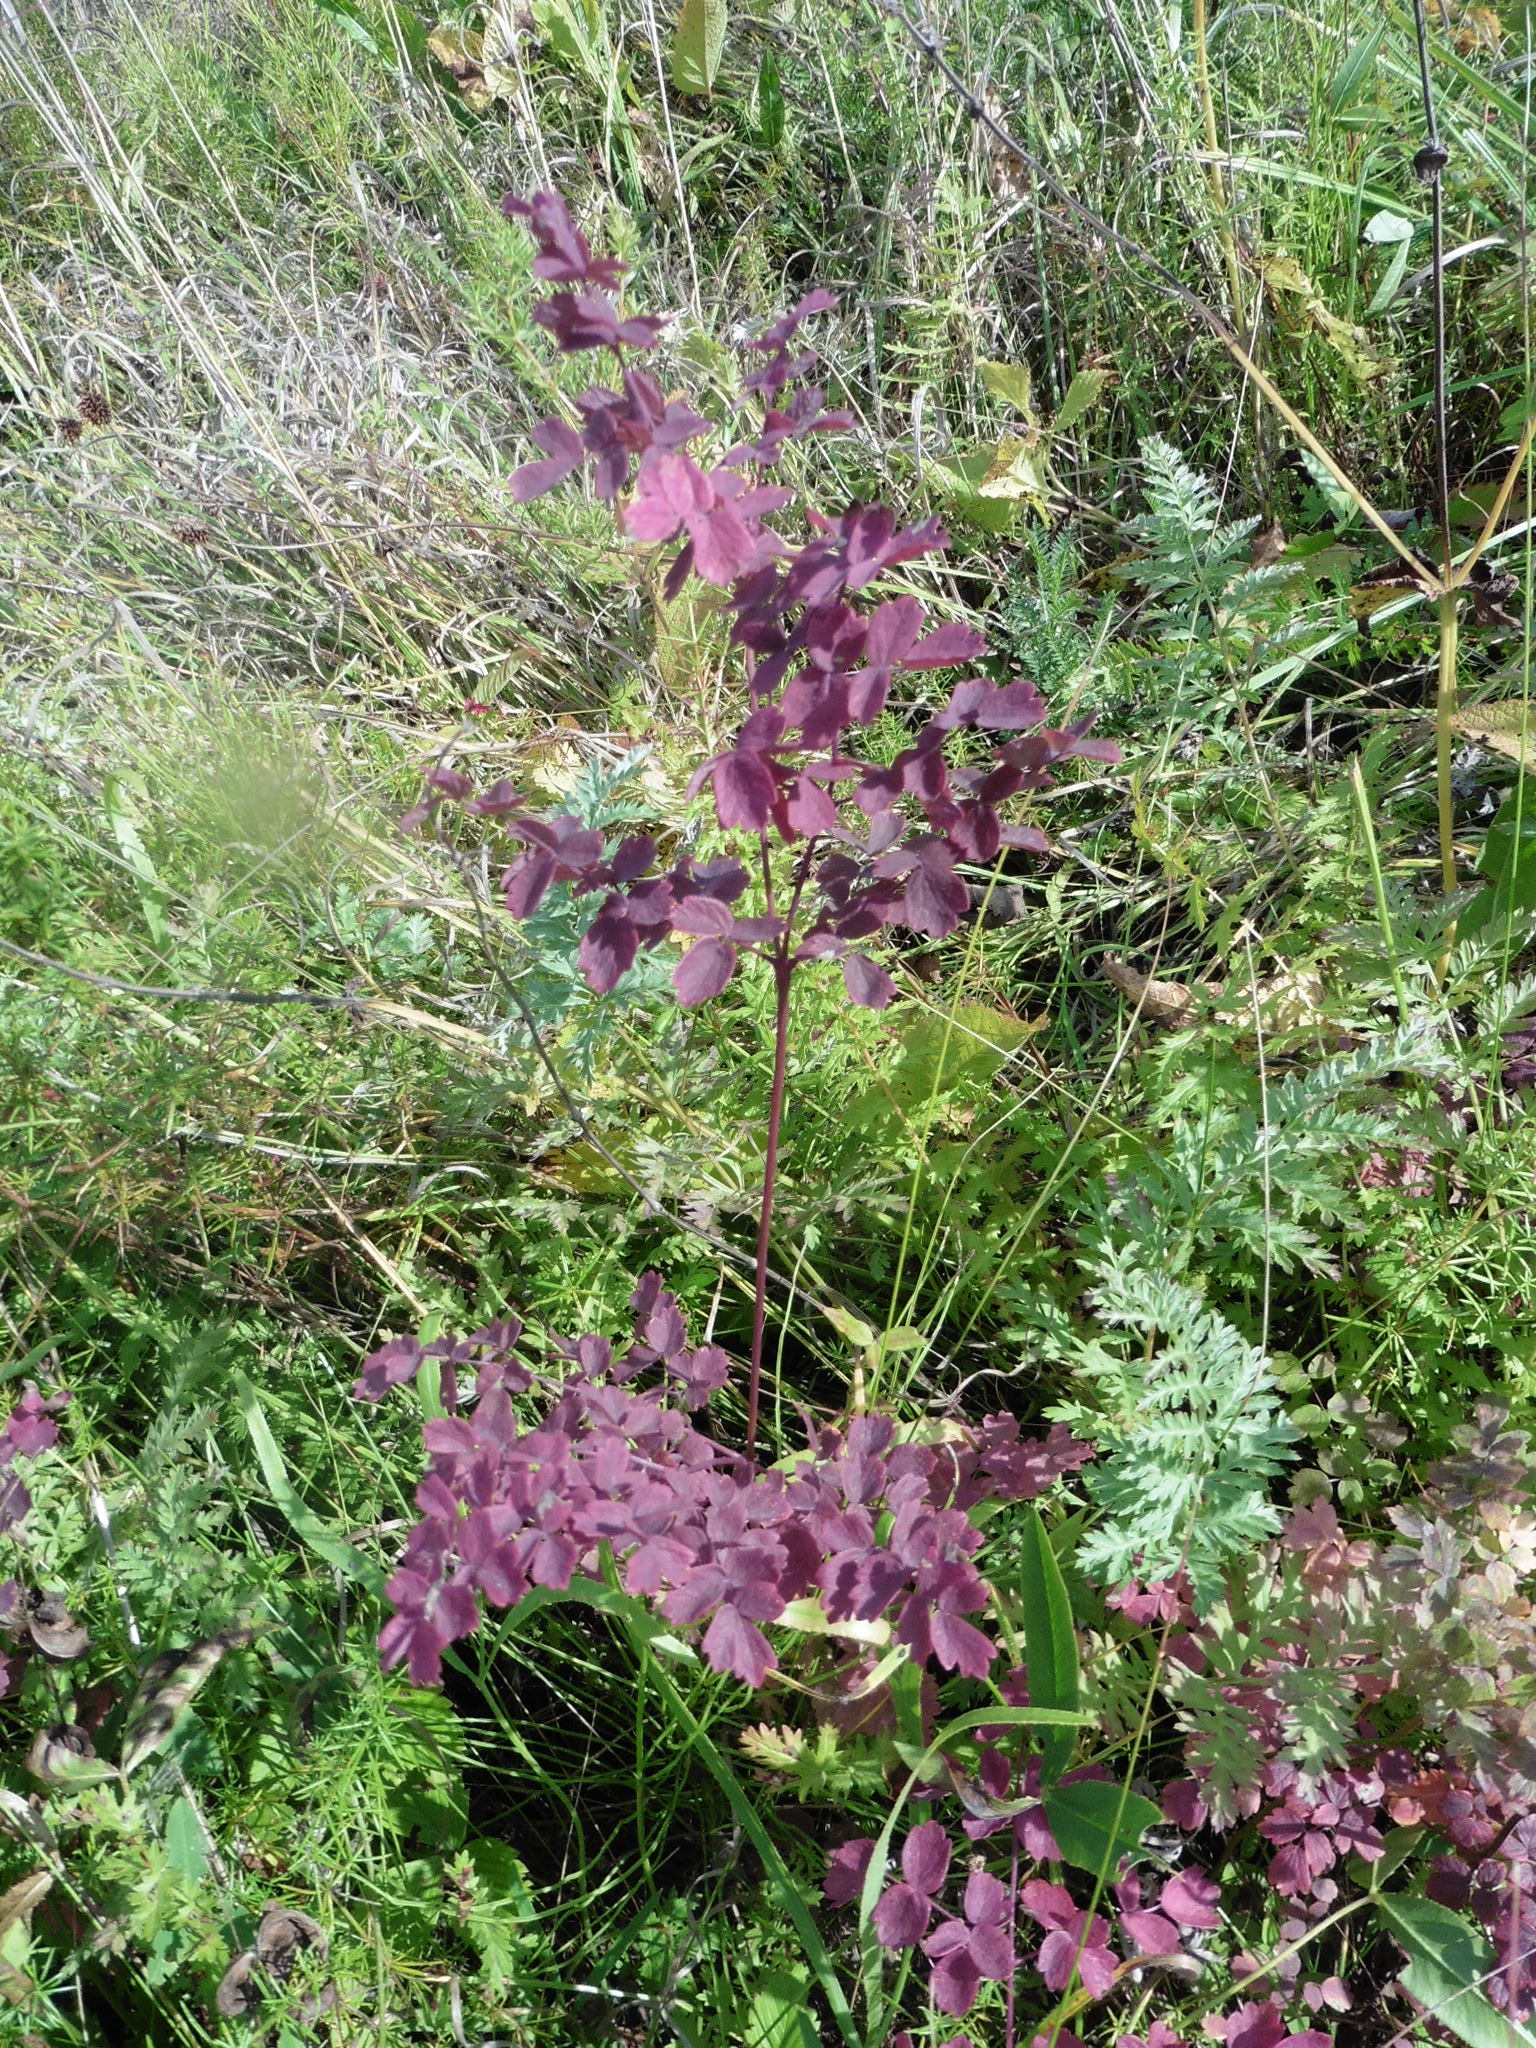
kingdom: Plantae
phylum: Tracheophyta
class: Magnoliopsida
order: Ranunculales
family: Ranunculaceae
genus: Thalictrum
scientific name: Thalictrum minus
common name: Lesser meadow-rue
